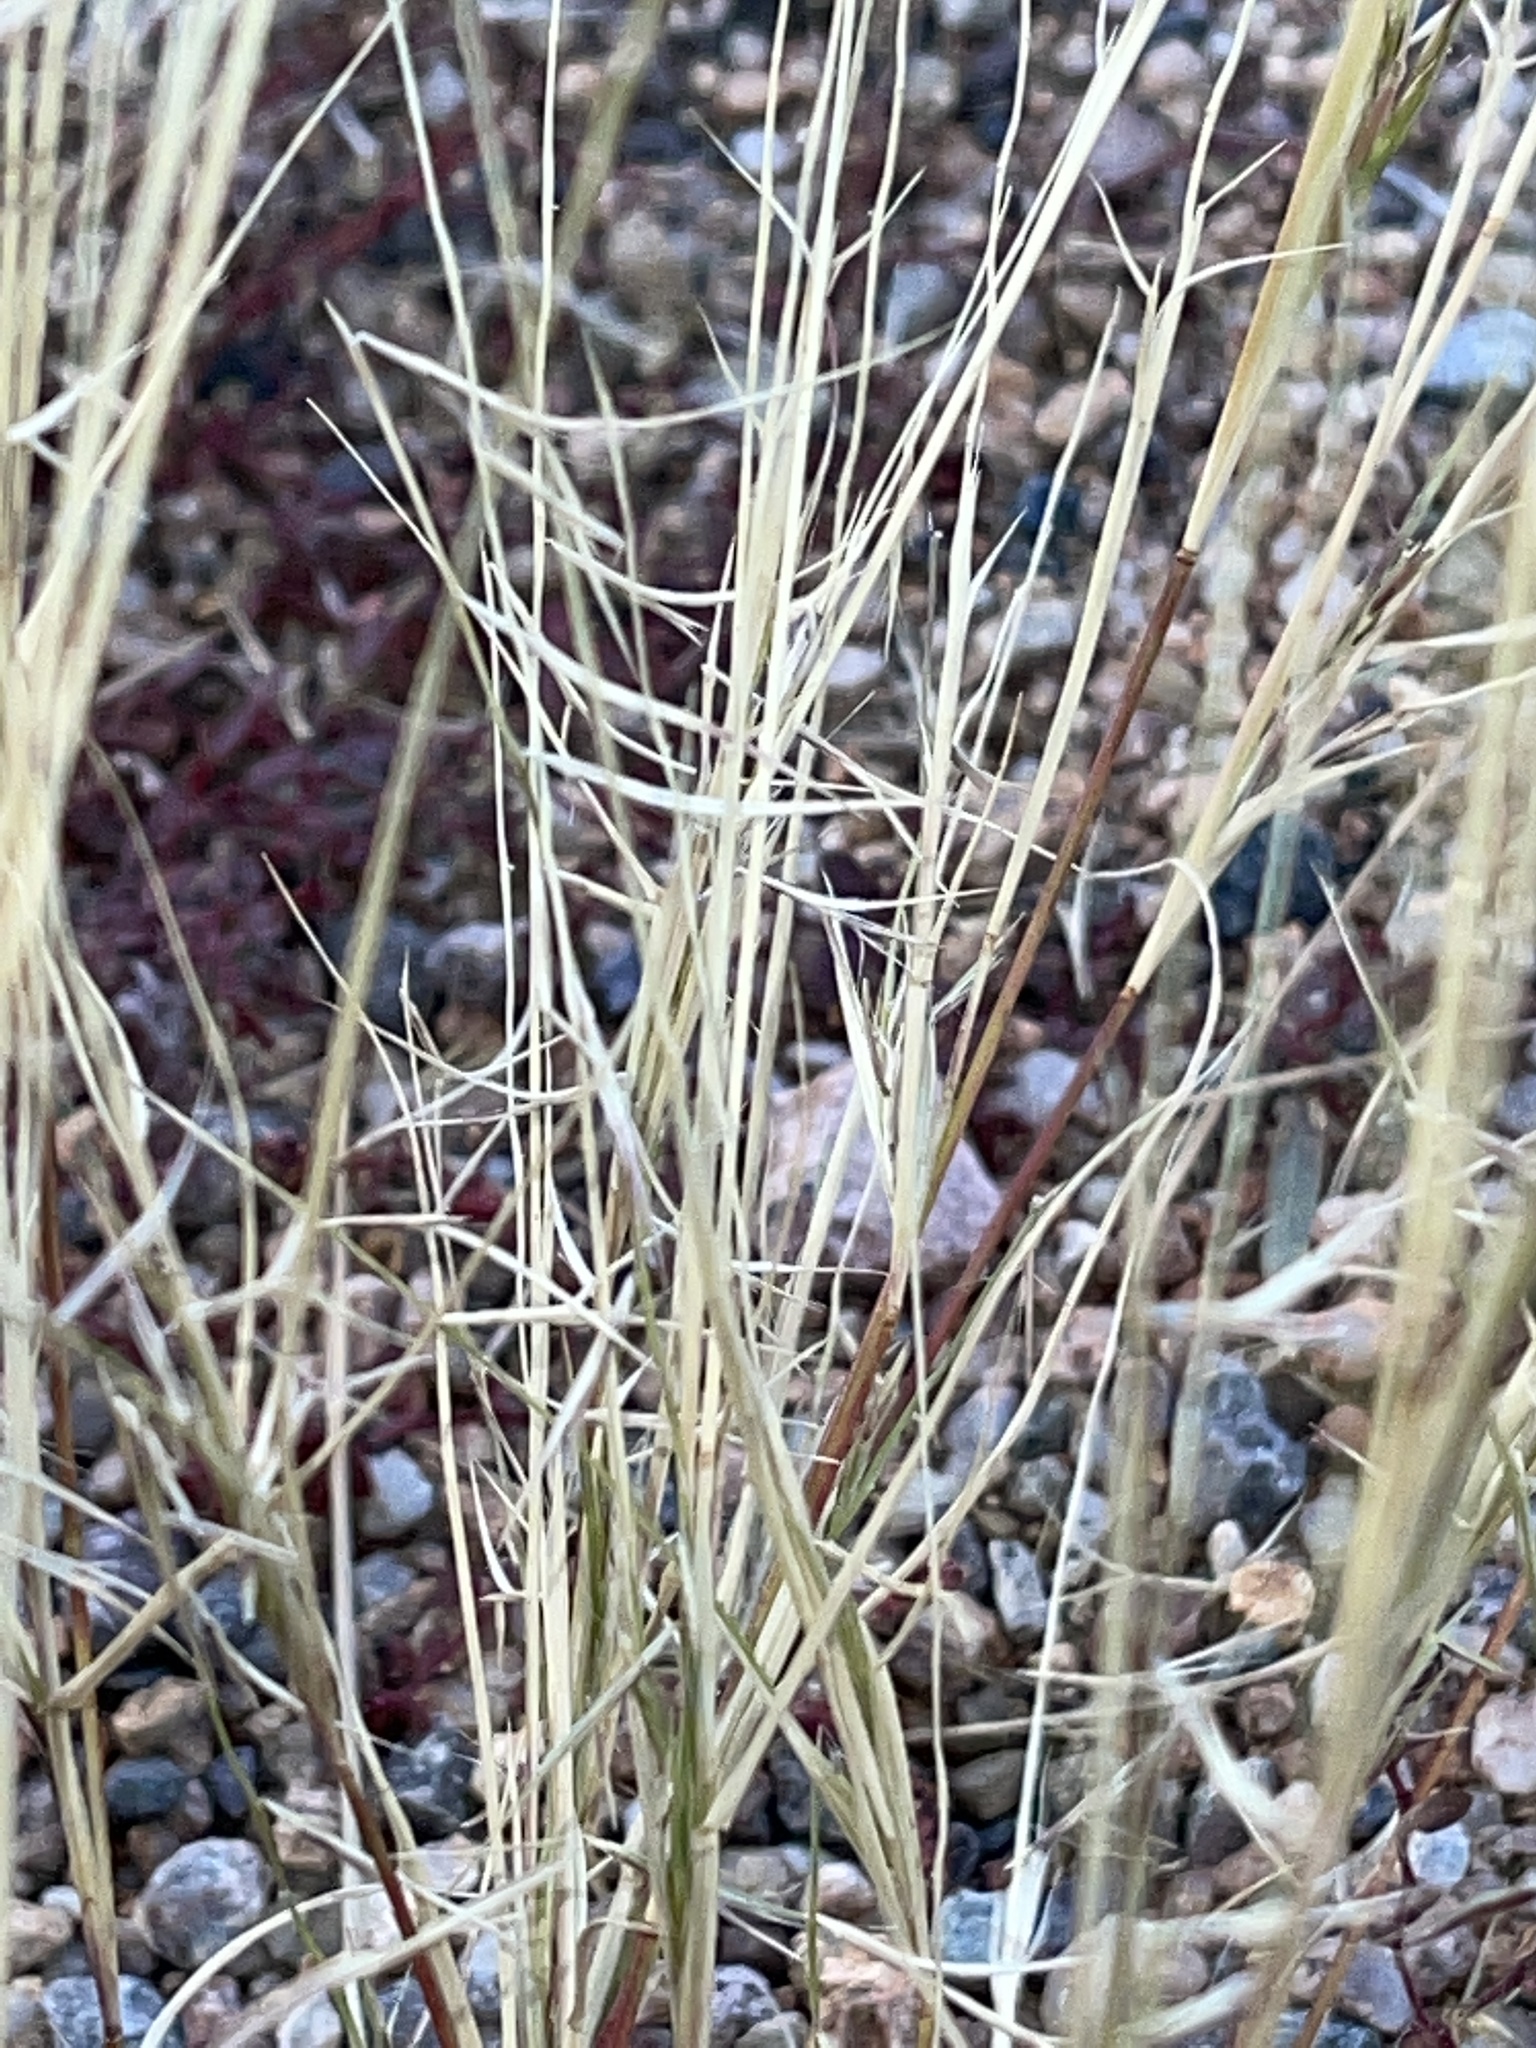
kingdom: Plantae
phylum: Tracheophyta
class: Liliopsida
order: Poales
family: Poaceae
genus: Bouteloua
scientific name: Bouteloua aristidoides
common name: Needle grama
